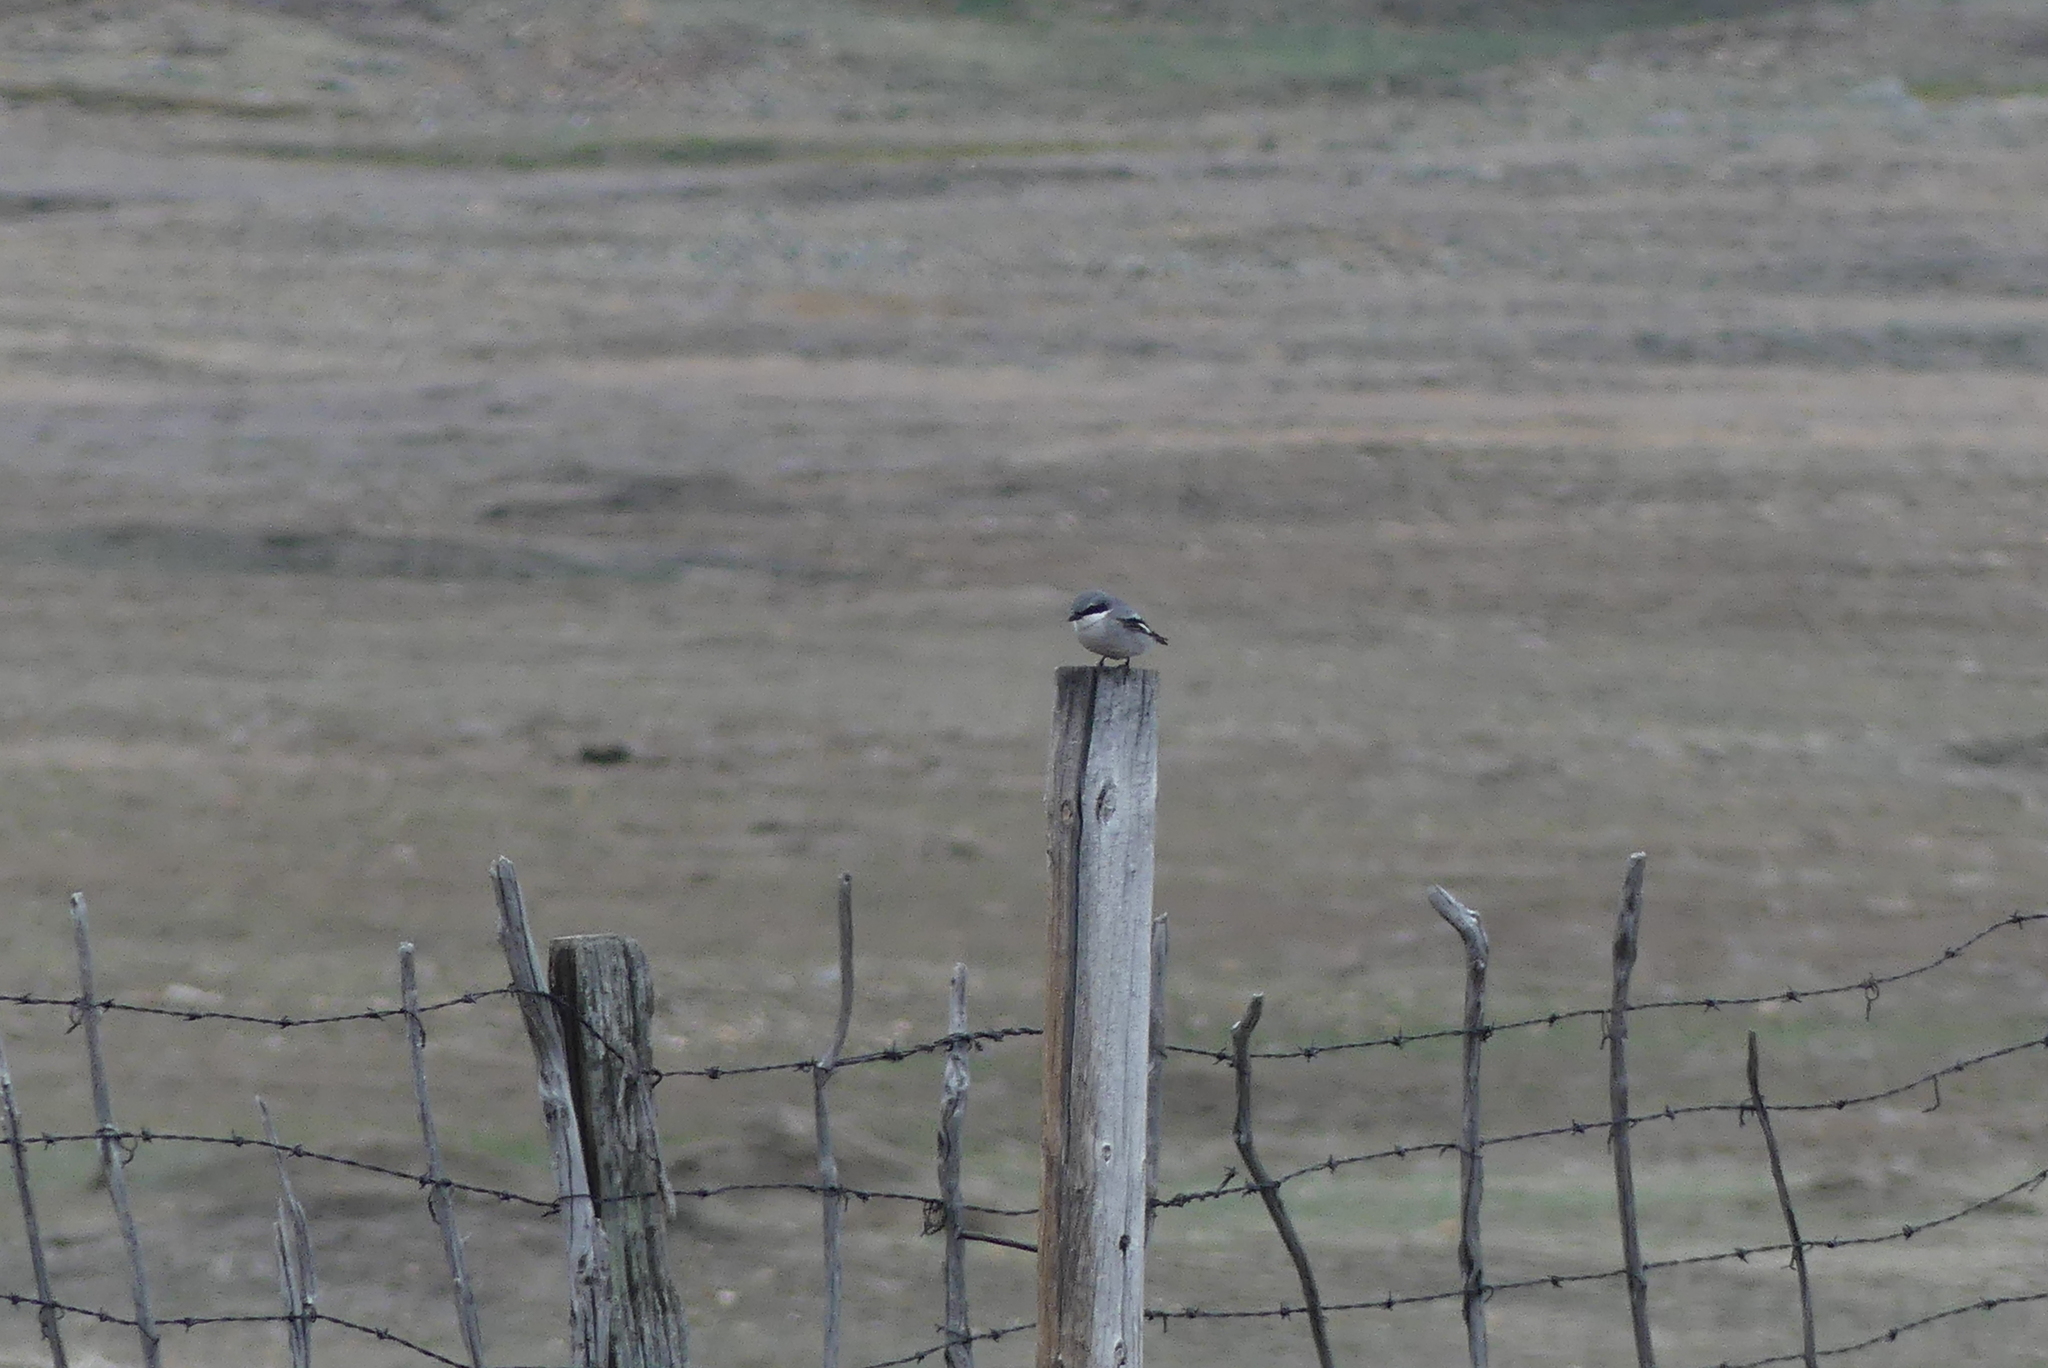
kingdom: Animalia
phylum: Chordata
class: Aves
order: Passeriformes
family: Laniidae
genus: Lanius
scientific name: Lanius ludovicianus
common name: Loggerhead shrike
